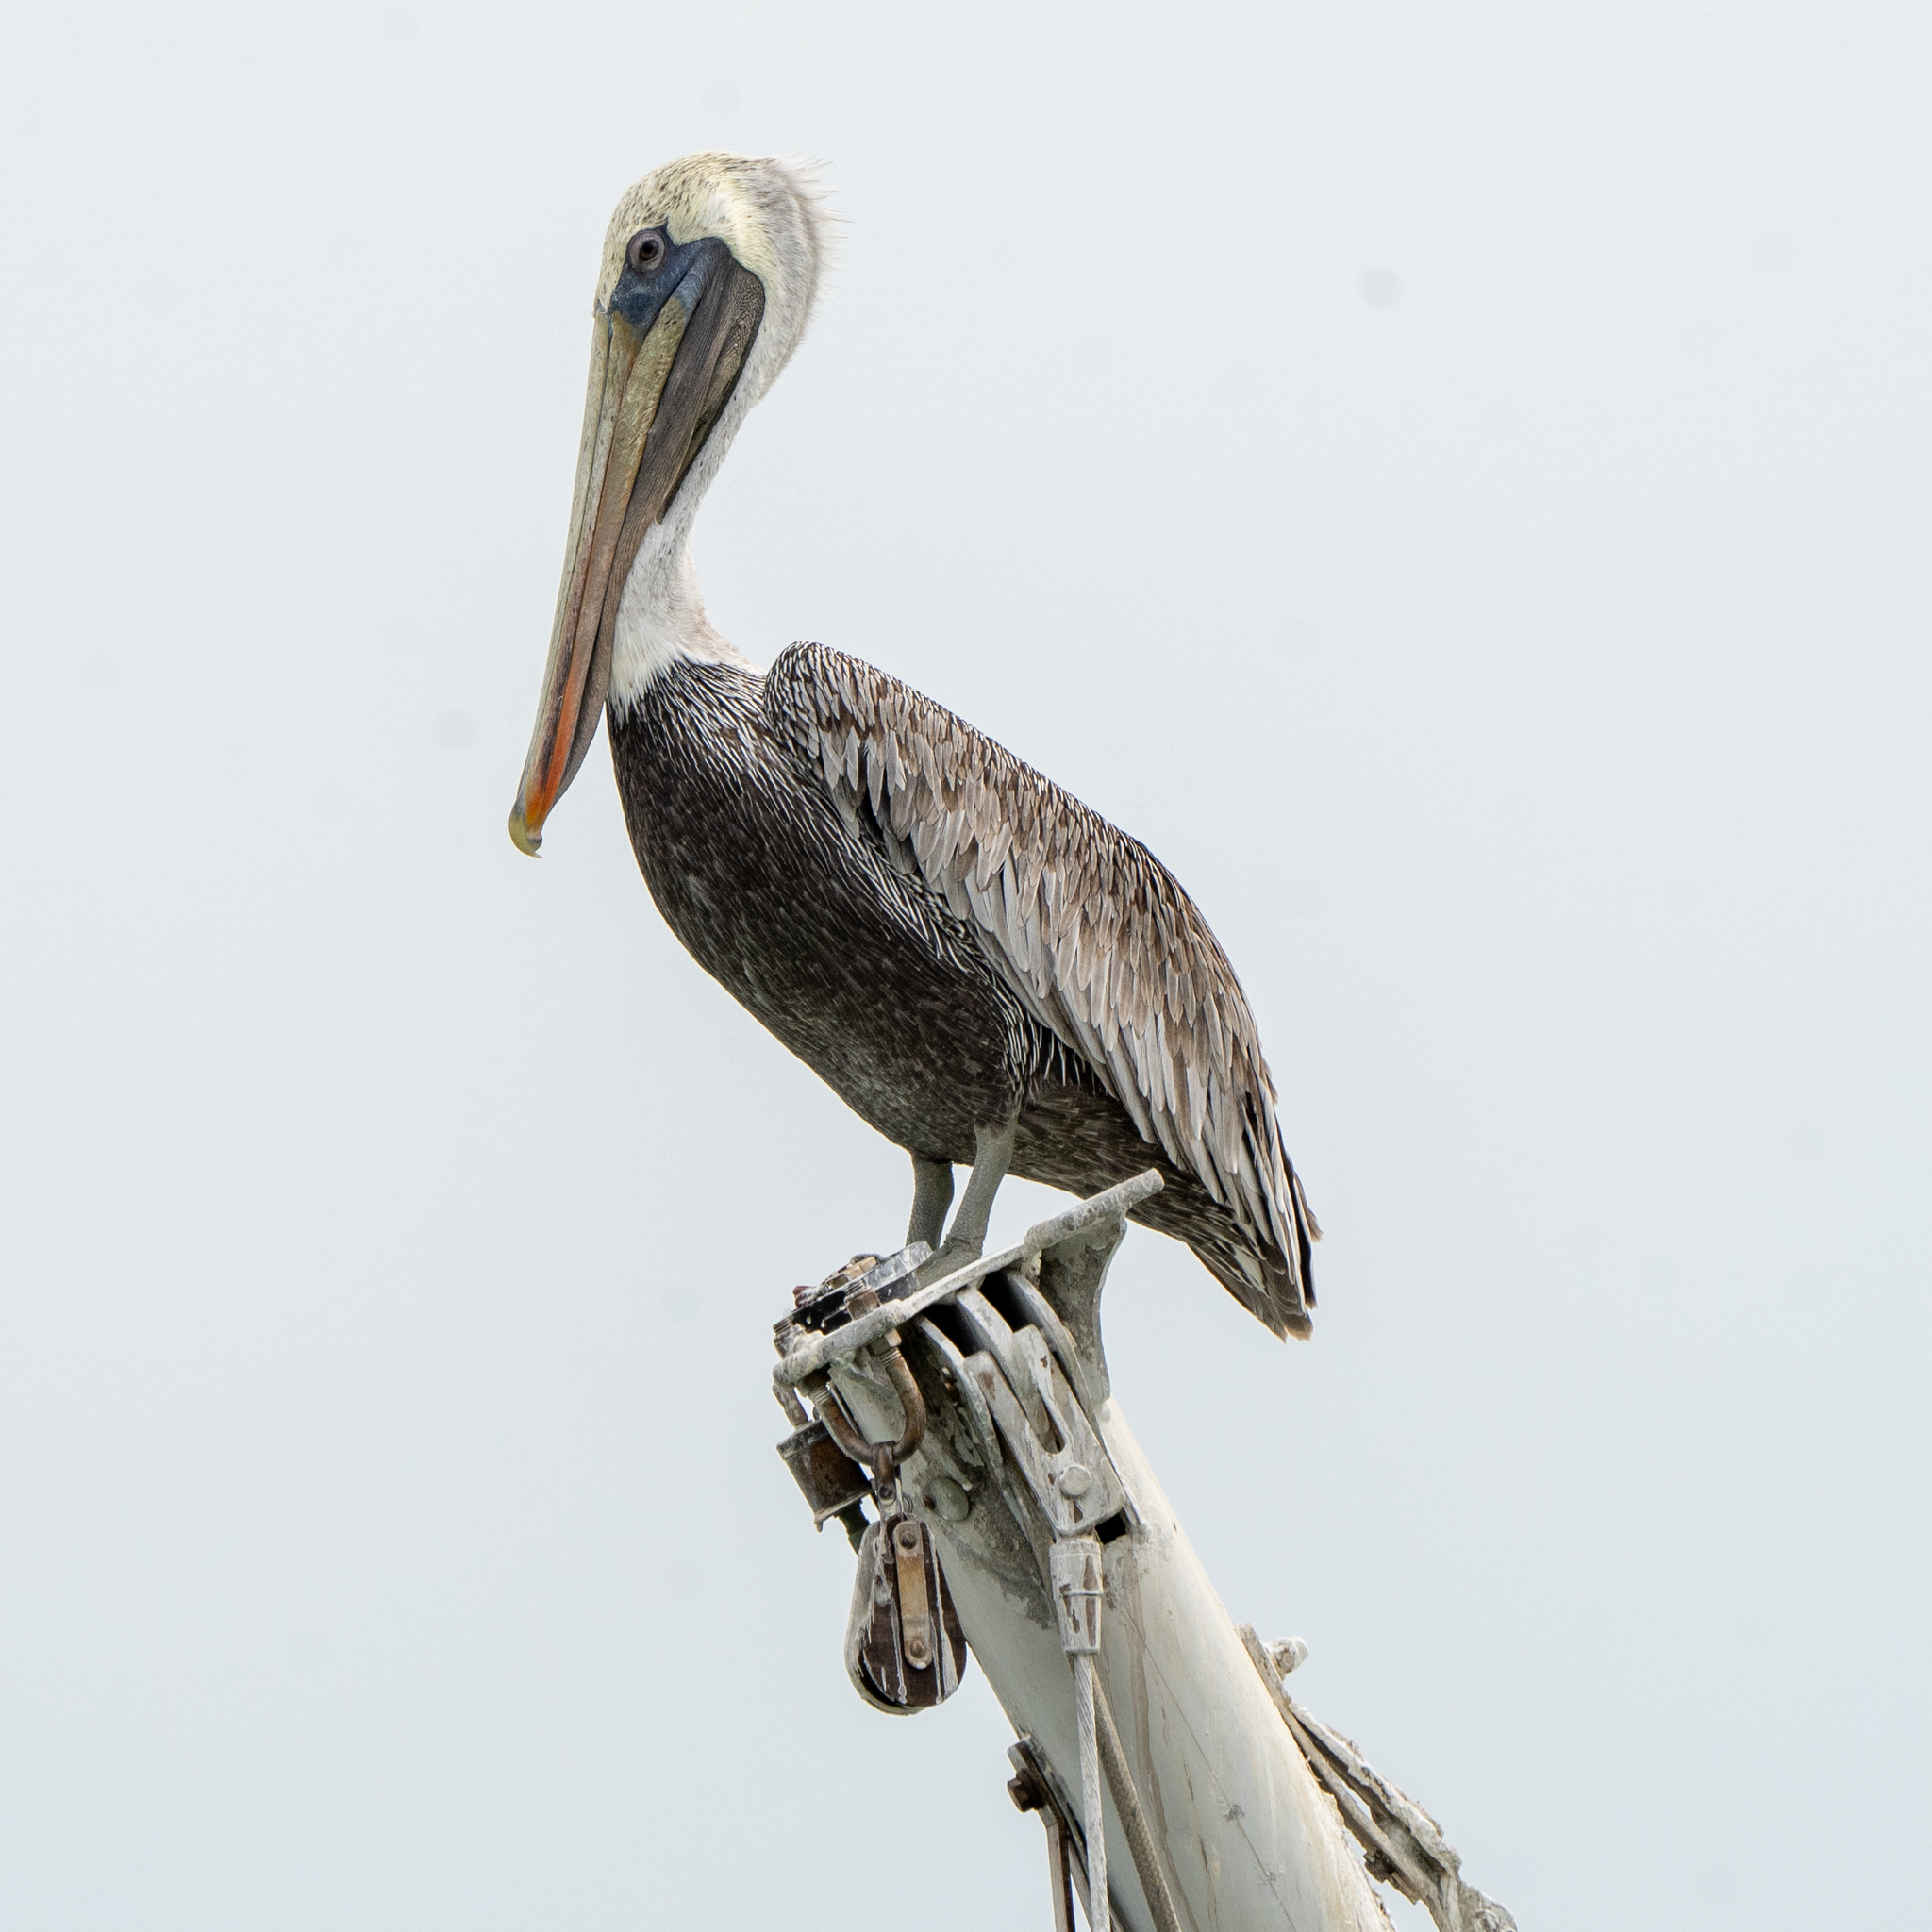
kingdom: Animalia
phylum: Chordata
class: Aves
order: Pelecaniformes
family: Pelecanidae
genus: Pelecanus
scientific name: Pelecanus occidentalis
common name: Brown pelican
